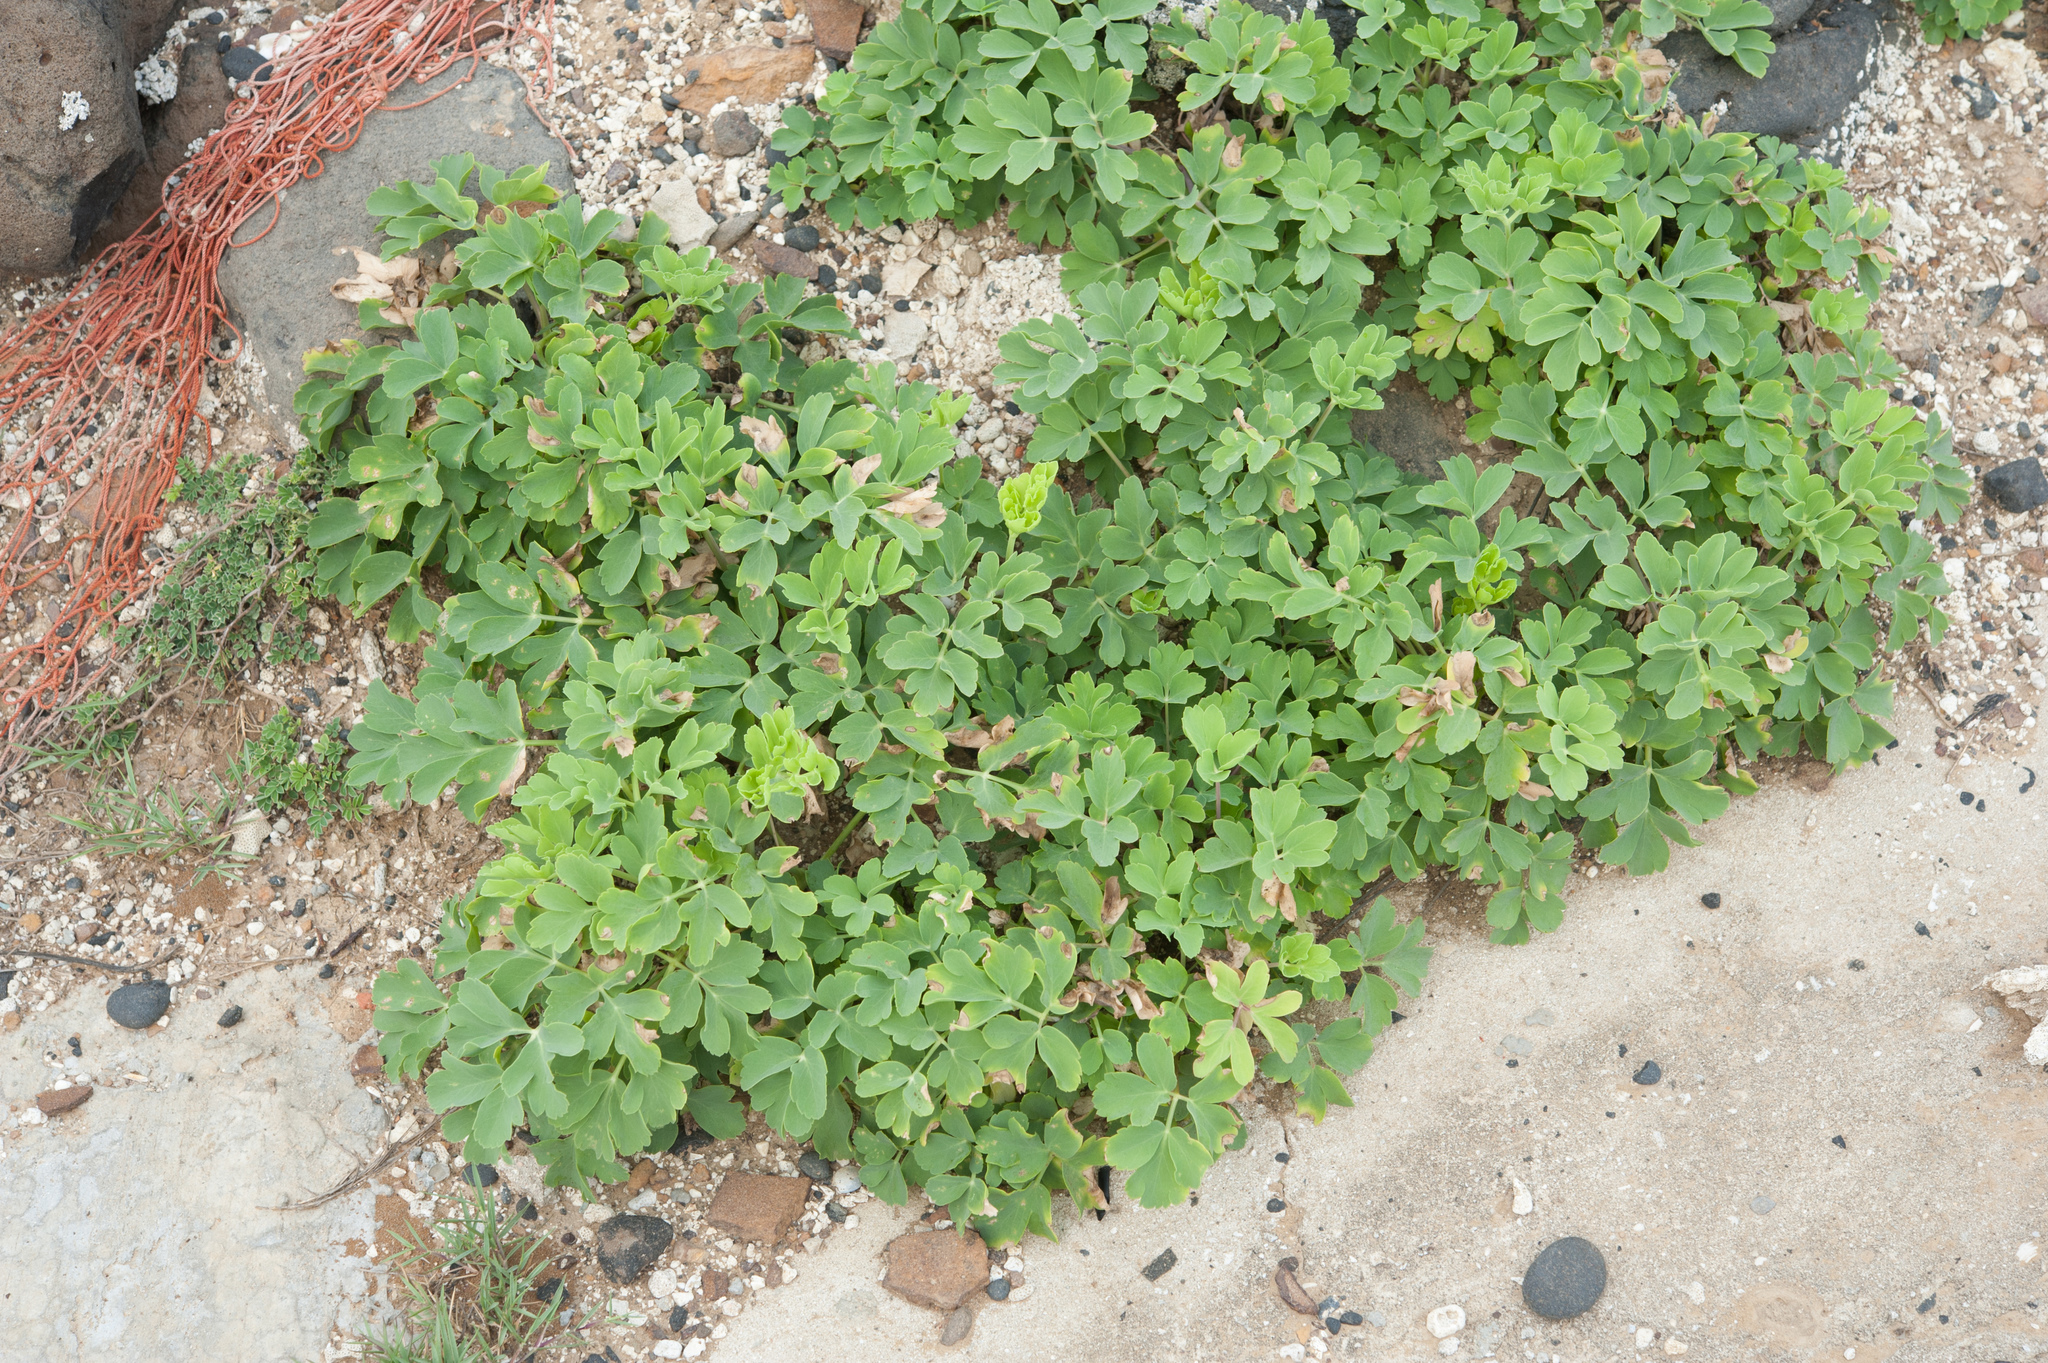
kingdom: Plantae
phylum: Tracheophyta
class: Magnoliopsida
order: Apiales
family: Apiaceae
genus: Peucedanum
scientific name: Peucedanum japonicum
